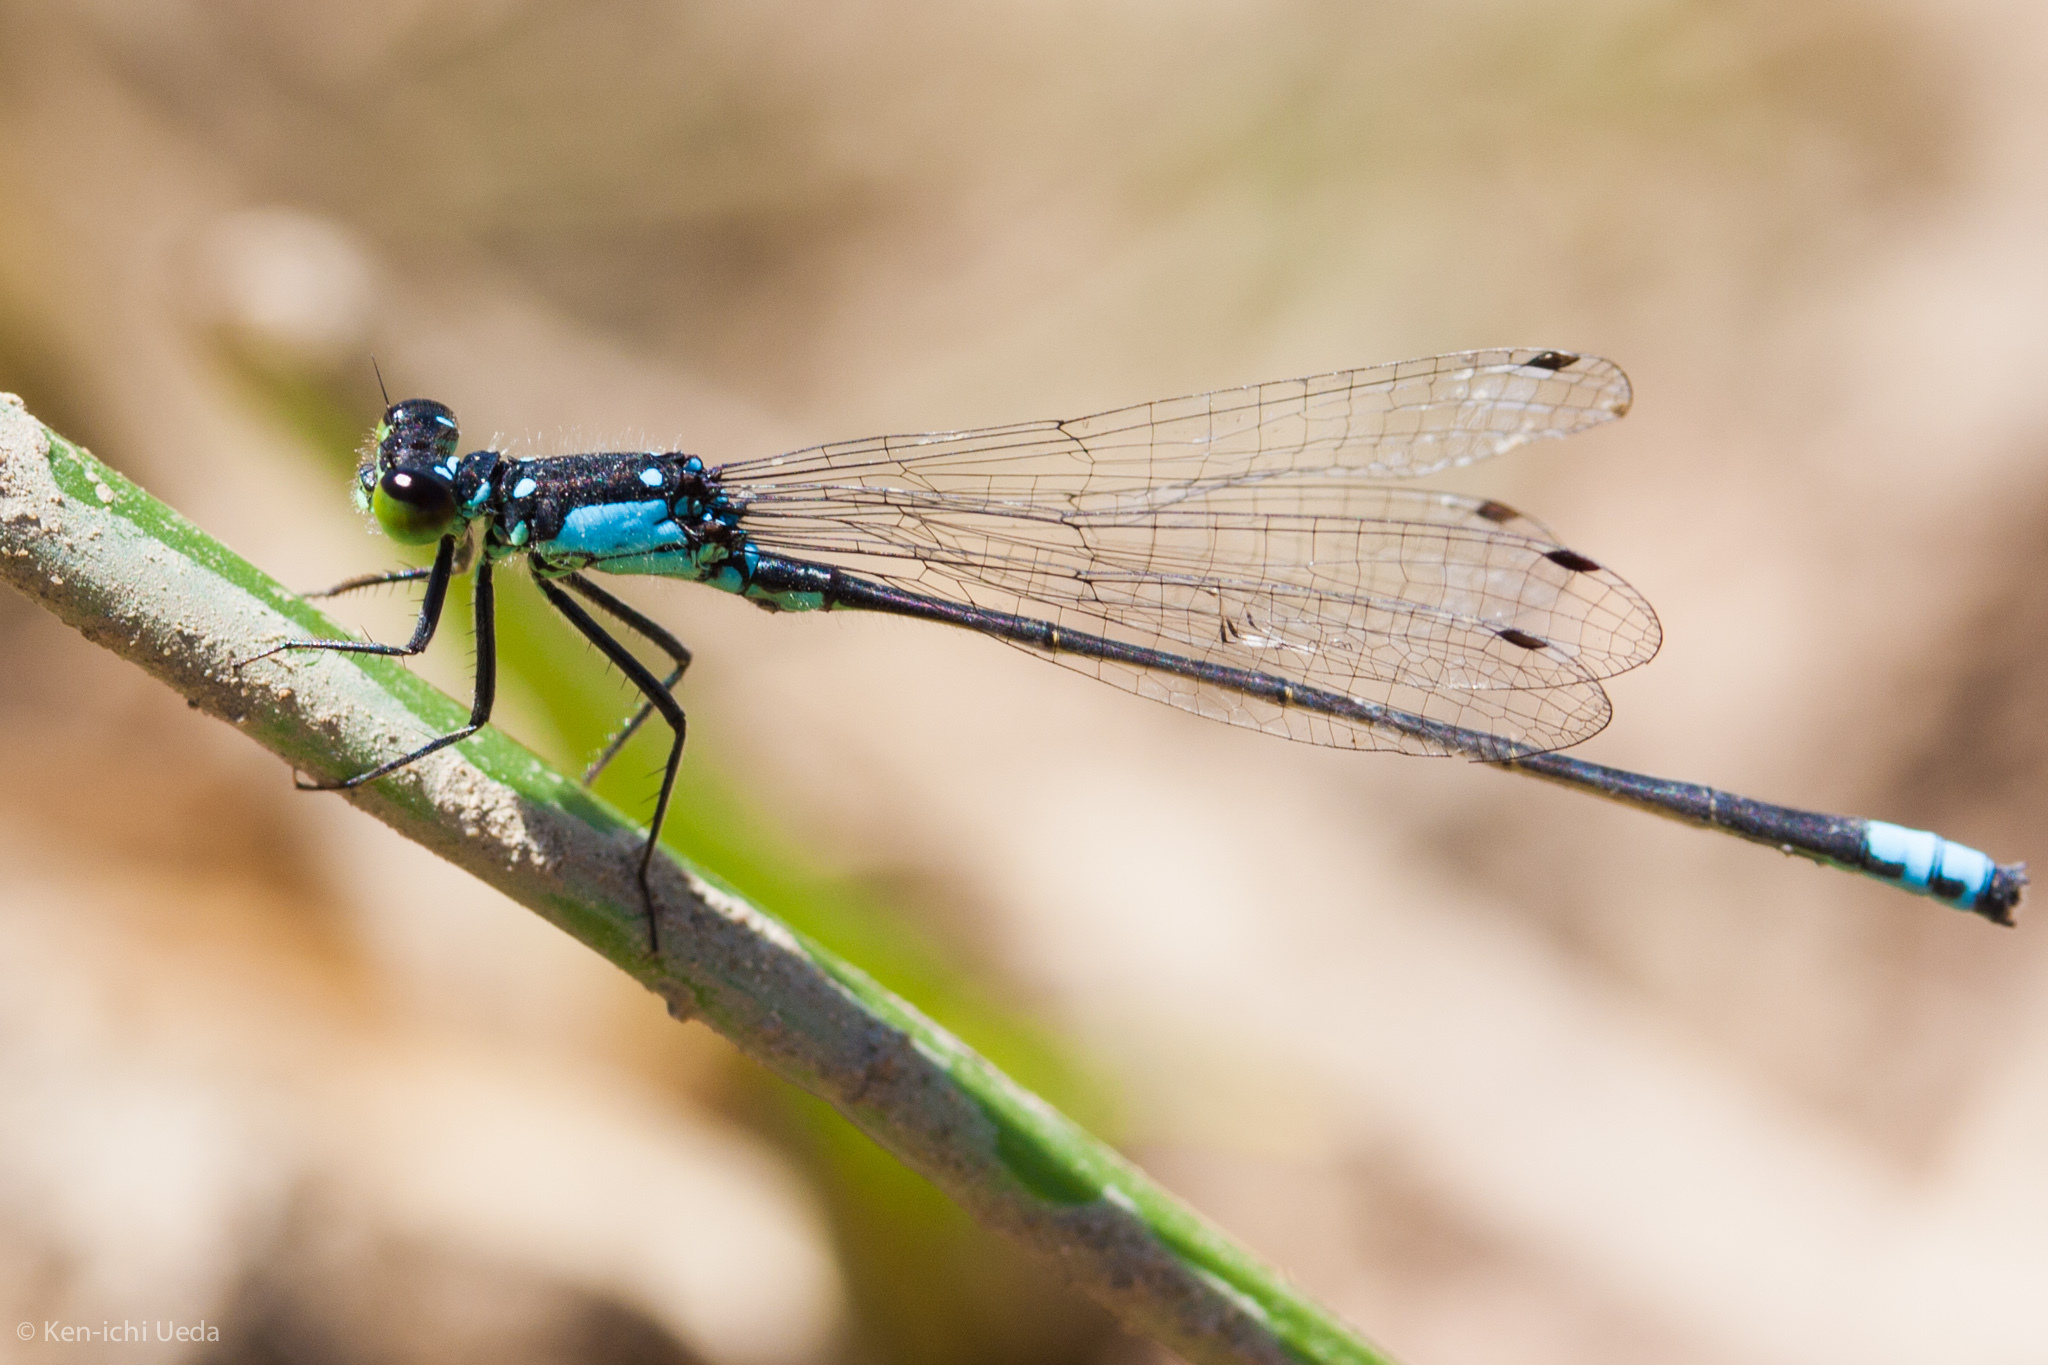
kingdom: Animalia
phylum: Arthropoda
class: Insecta
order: Odonata
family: Coenagrionidae
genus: Ischnura
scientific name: Ischnura cervula
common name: Pacific forktail
